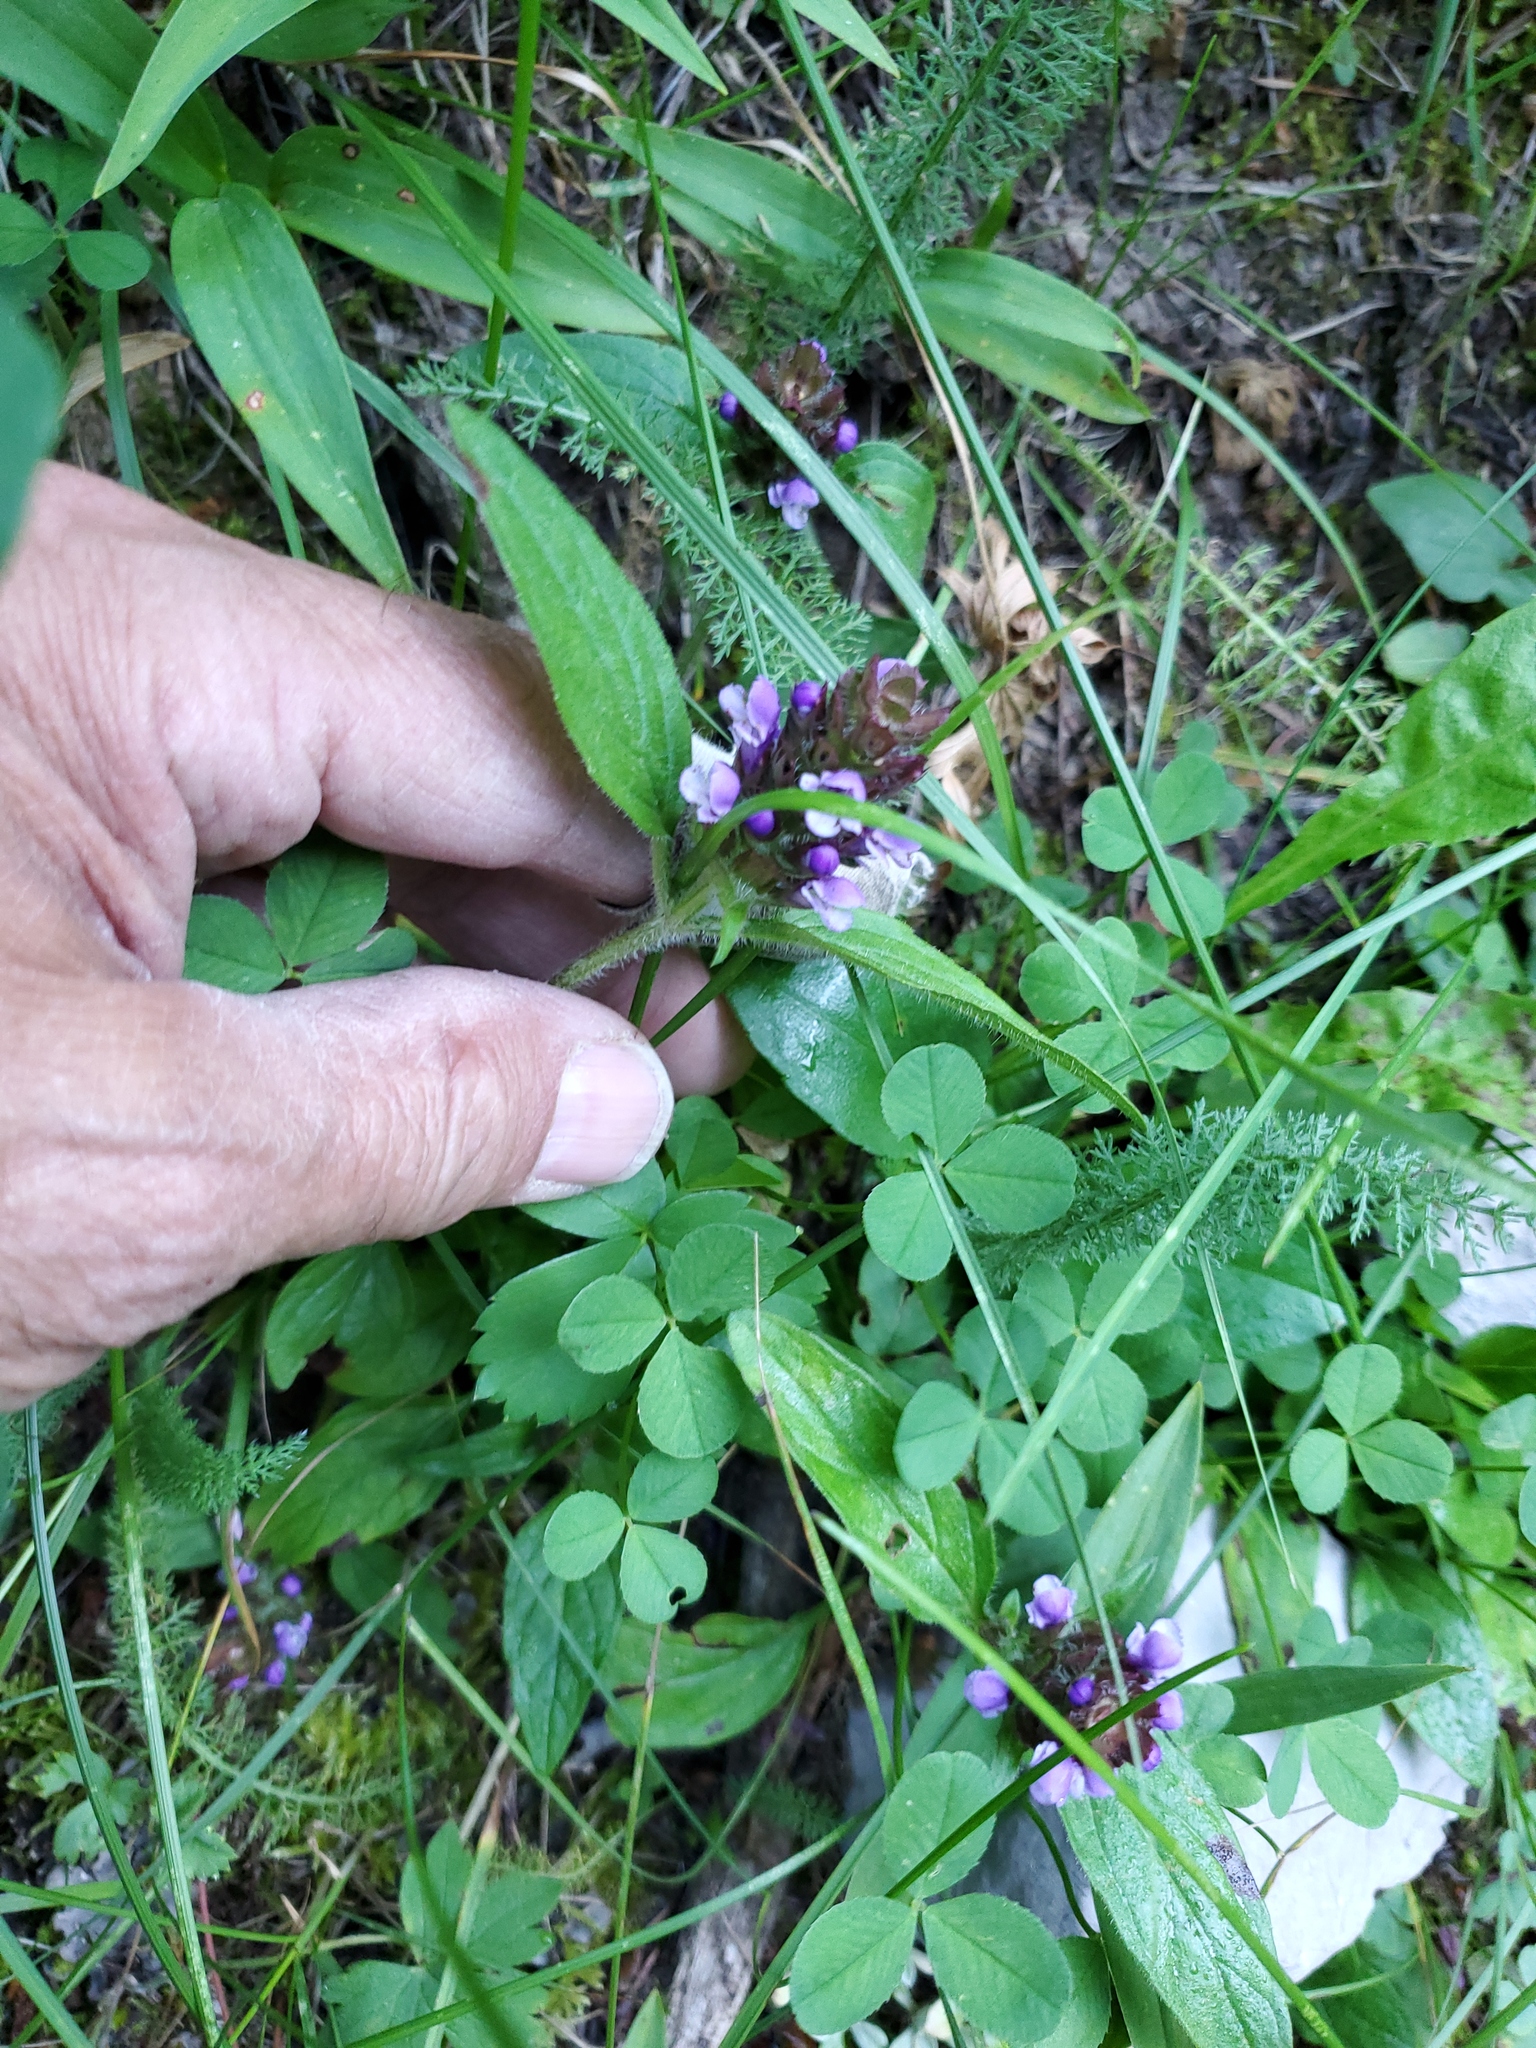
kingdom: Plantae
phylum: Tracheophyta
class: Magnoliopsida
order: Lamiales
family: Lamiaceae
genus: Prunella
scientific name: Prunella vulgaris
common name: Heal-all
